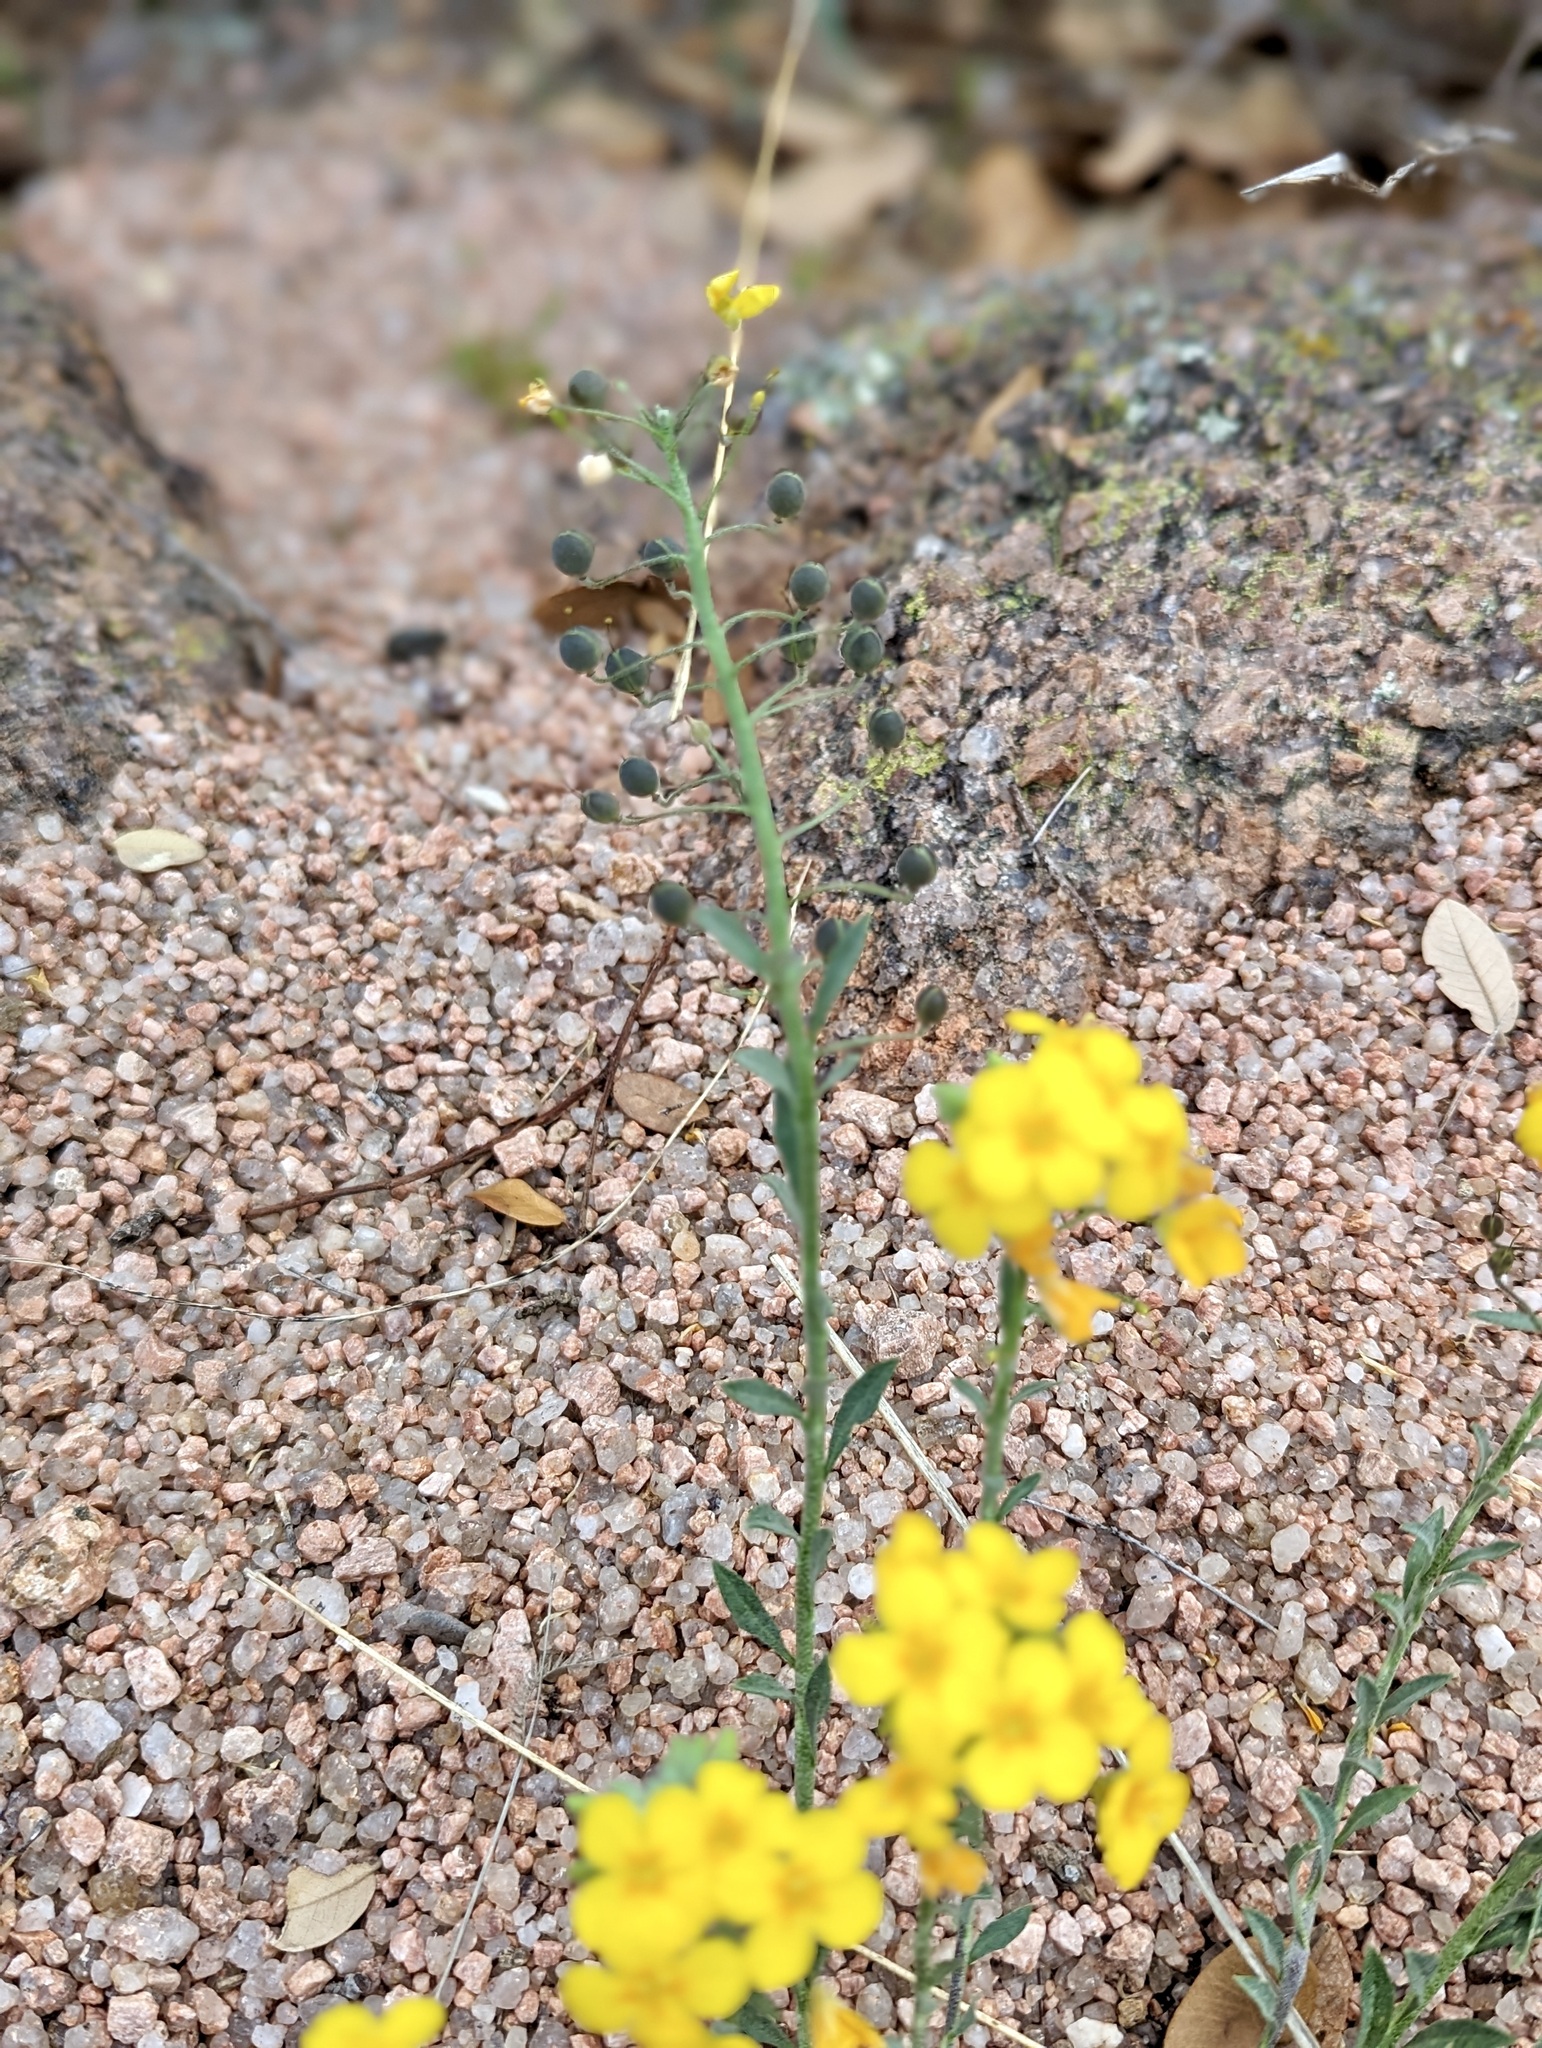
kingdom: Plantae
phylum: Tracheophyta
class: Magnoliopsida
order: Brassicales
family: Brassicaceae
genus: Physaria
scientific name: Physaria densiflora
